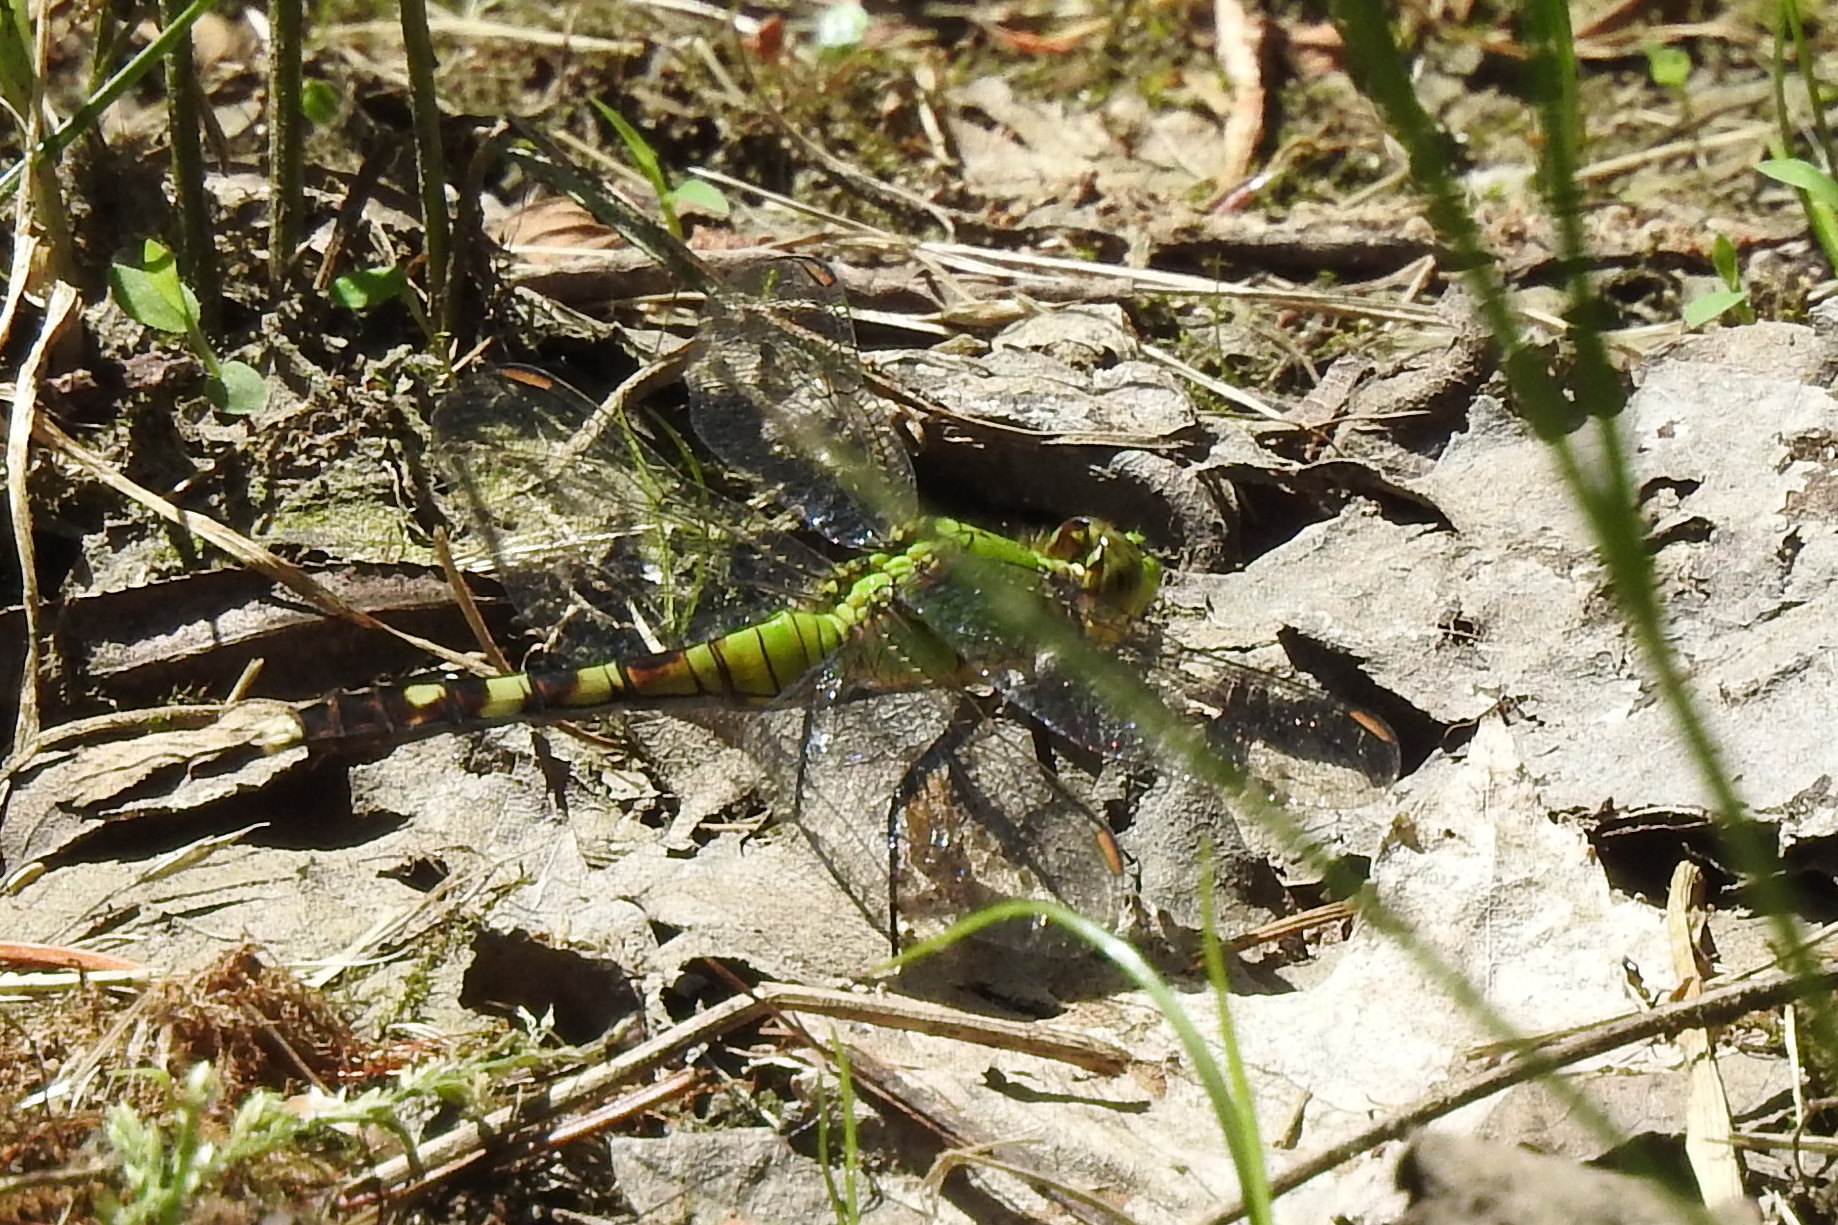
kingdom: Animalia
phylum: Arthropoda
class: Insecta
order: Odonata
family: Libellulidae
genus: Erythemis
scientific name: Erythemis simplicicollis
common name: Eastern pondhawk
